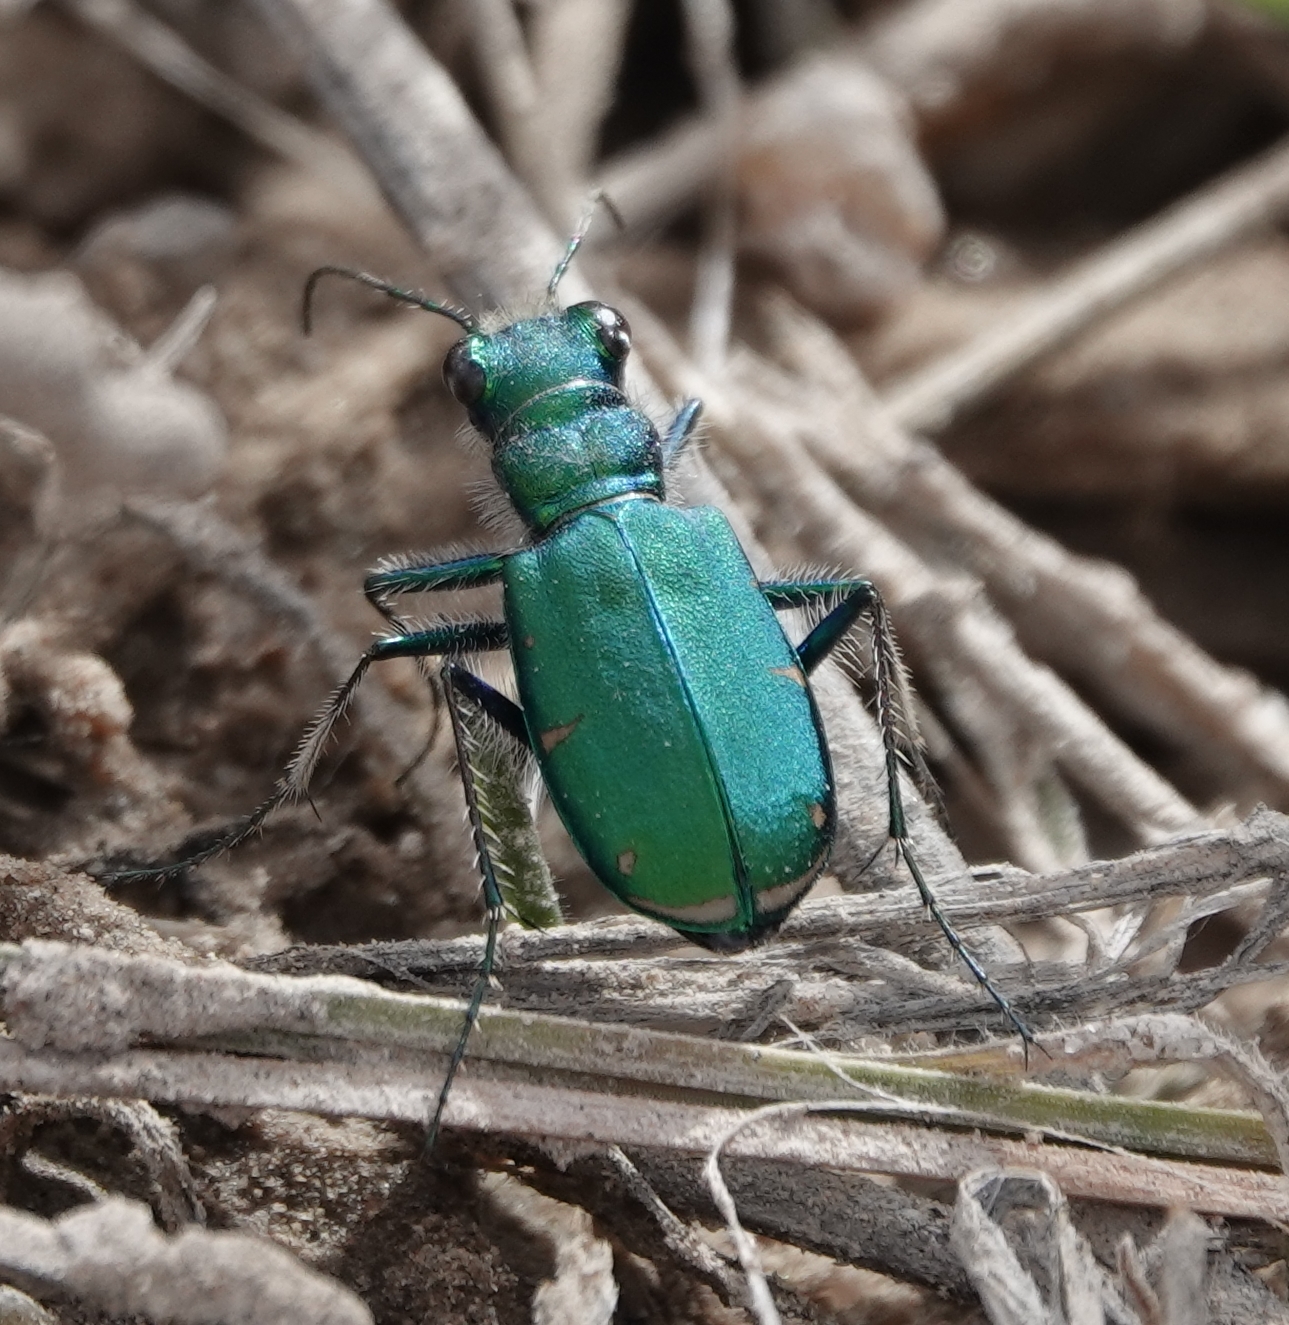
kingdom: Animalia
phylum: Arthropoda
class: Insecta
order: Coleoptera
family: Carabidae
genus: Cicindela
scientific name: Cicindela denverensis
